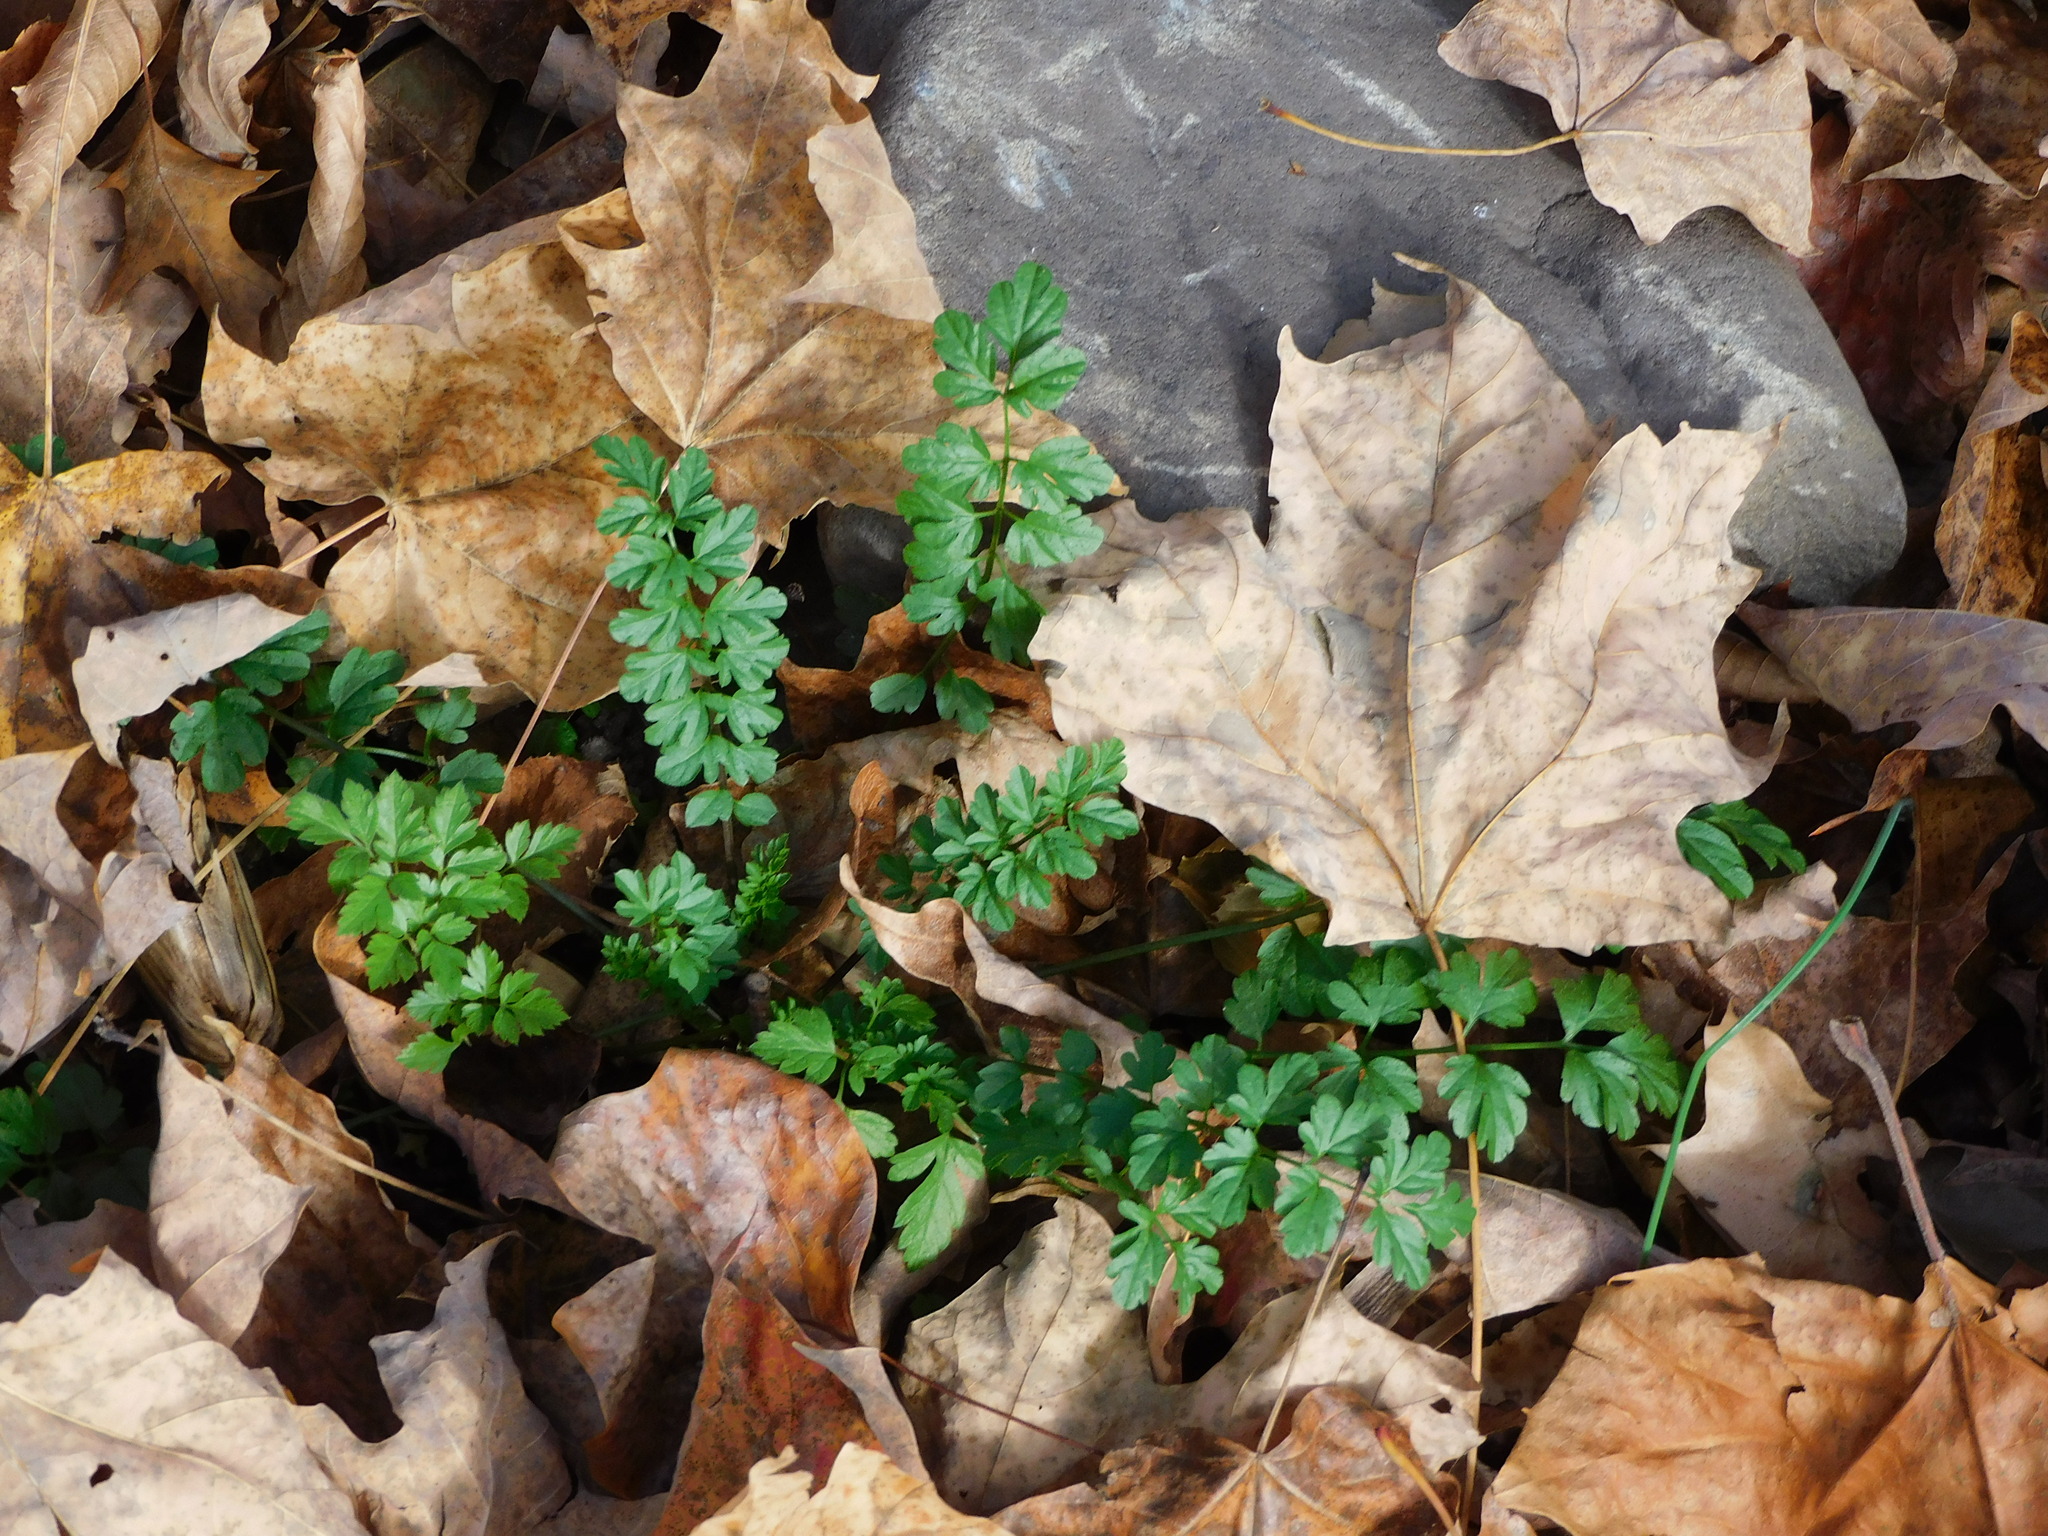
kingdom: Plantae
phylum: Tracheophyta
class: Magnoliopsida
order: Brassicales
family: Brassicaceae
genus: Cardamine
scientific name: Cardamine impatiens
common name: Narrow-leaved bitter-cress
